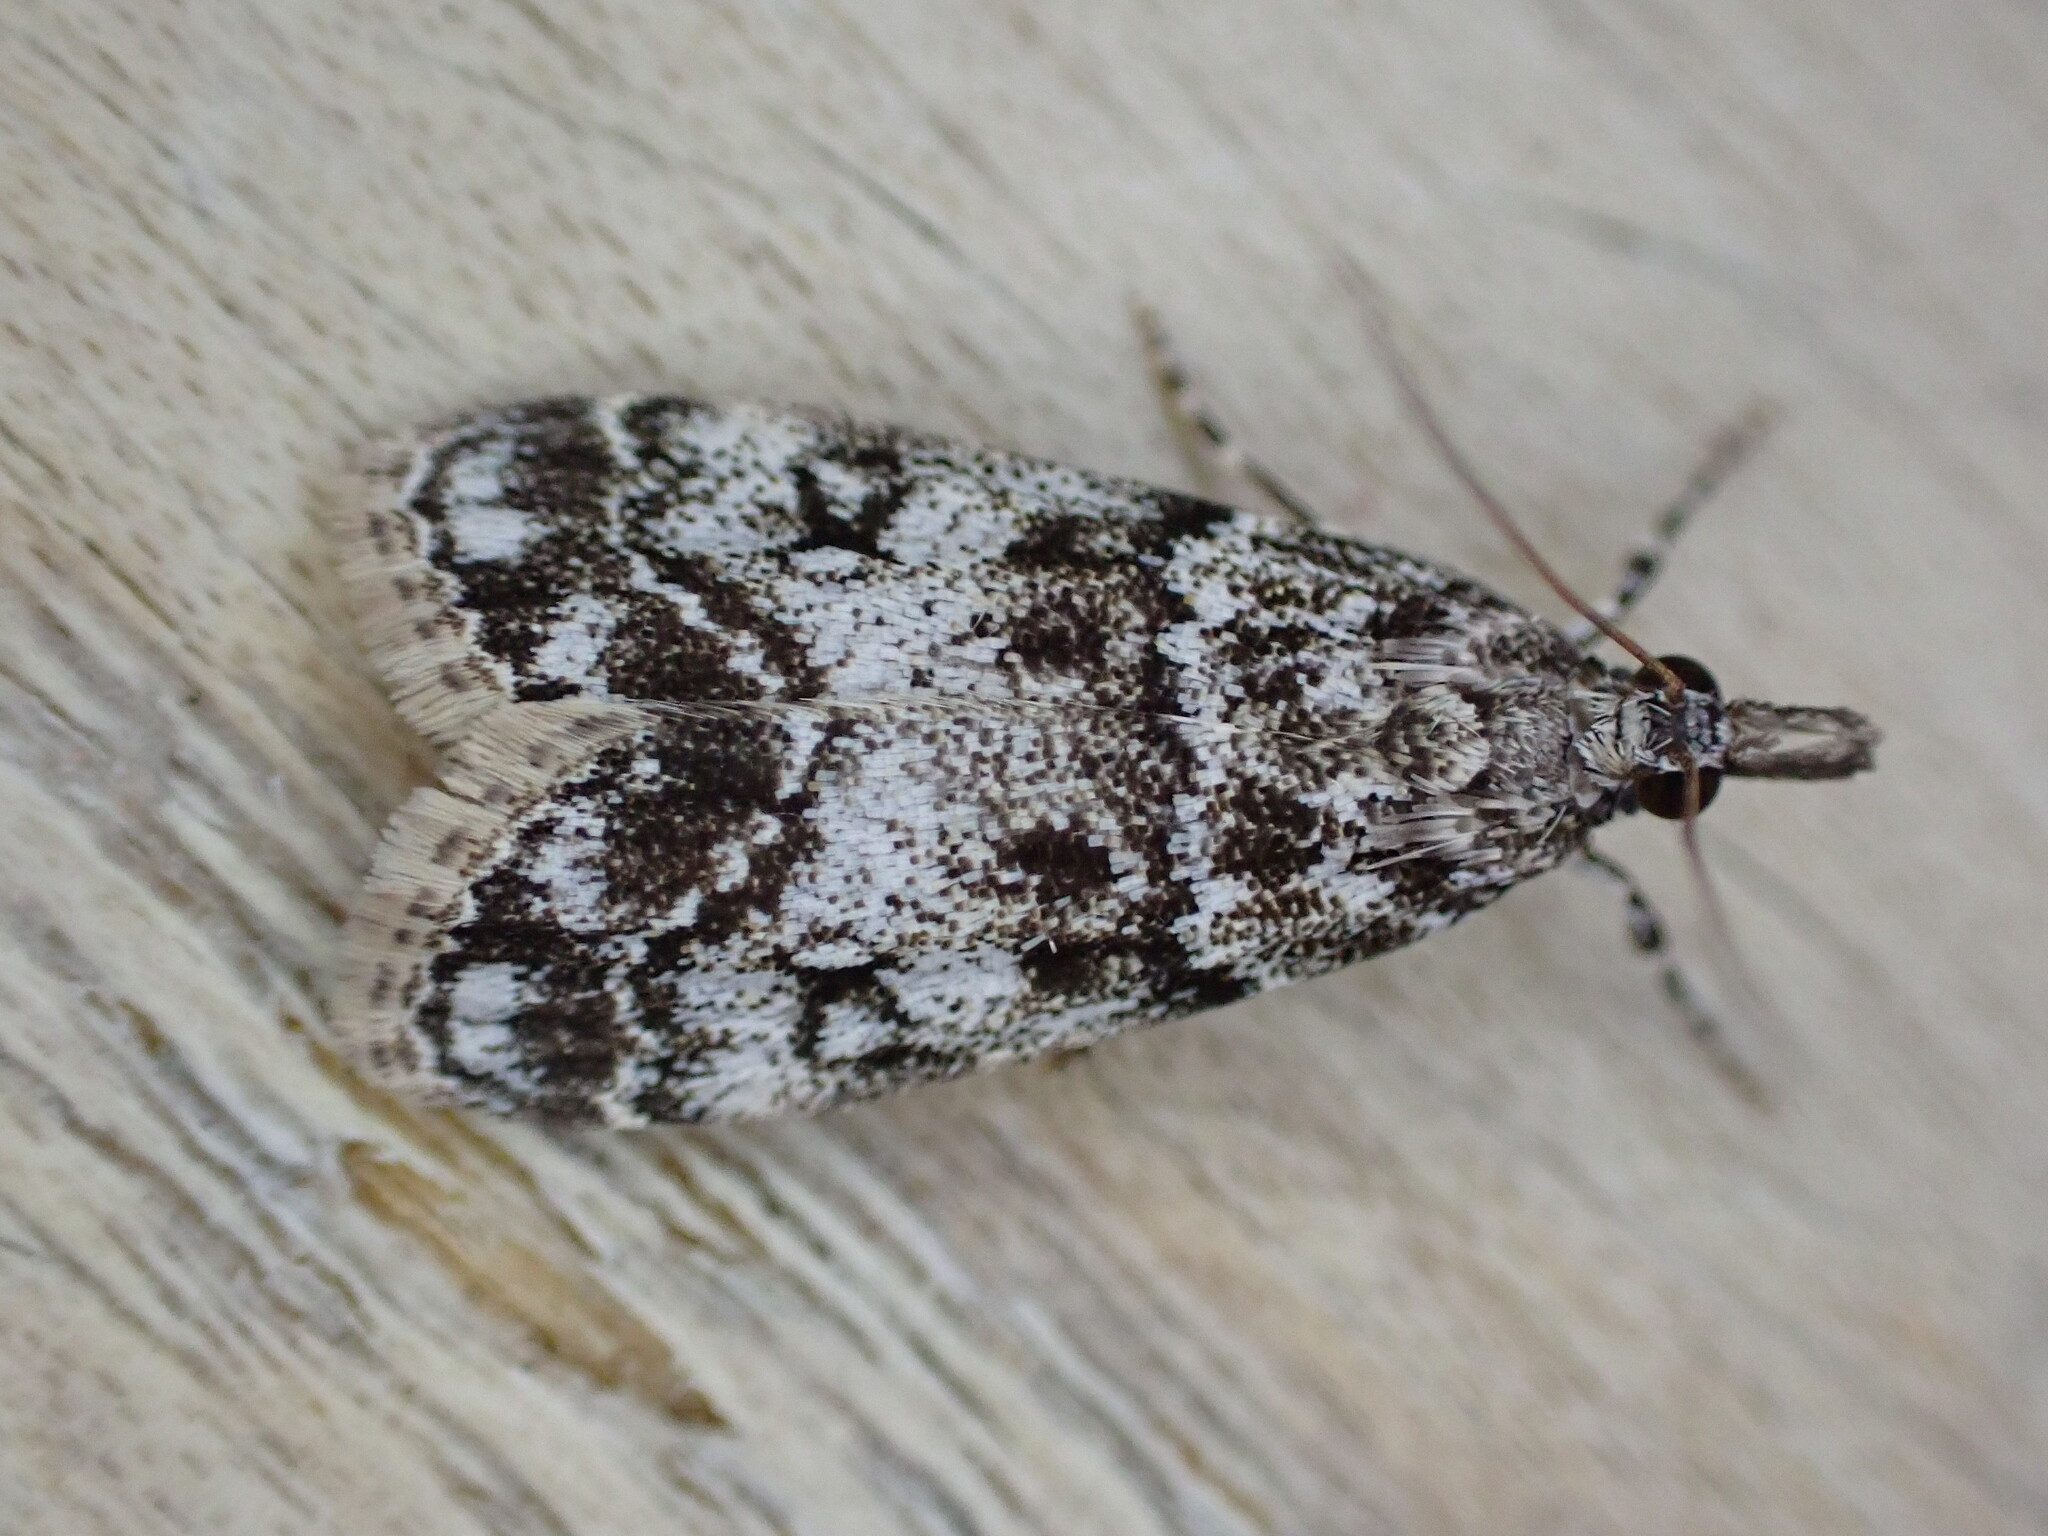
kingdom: Animalia
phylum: Arthropoda
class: Insecta
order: Lepidoptera
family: Crambidae
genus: Eudonia
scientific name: Eudonia lacustrata
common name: Little grey
